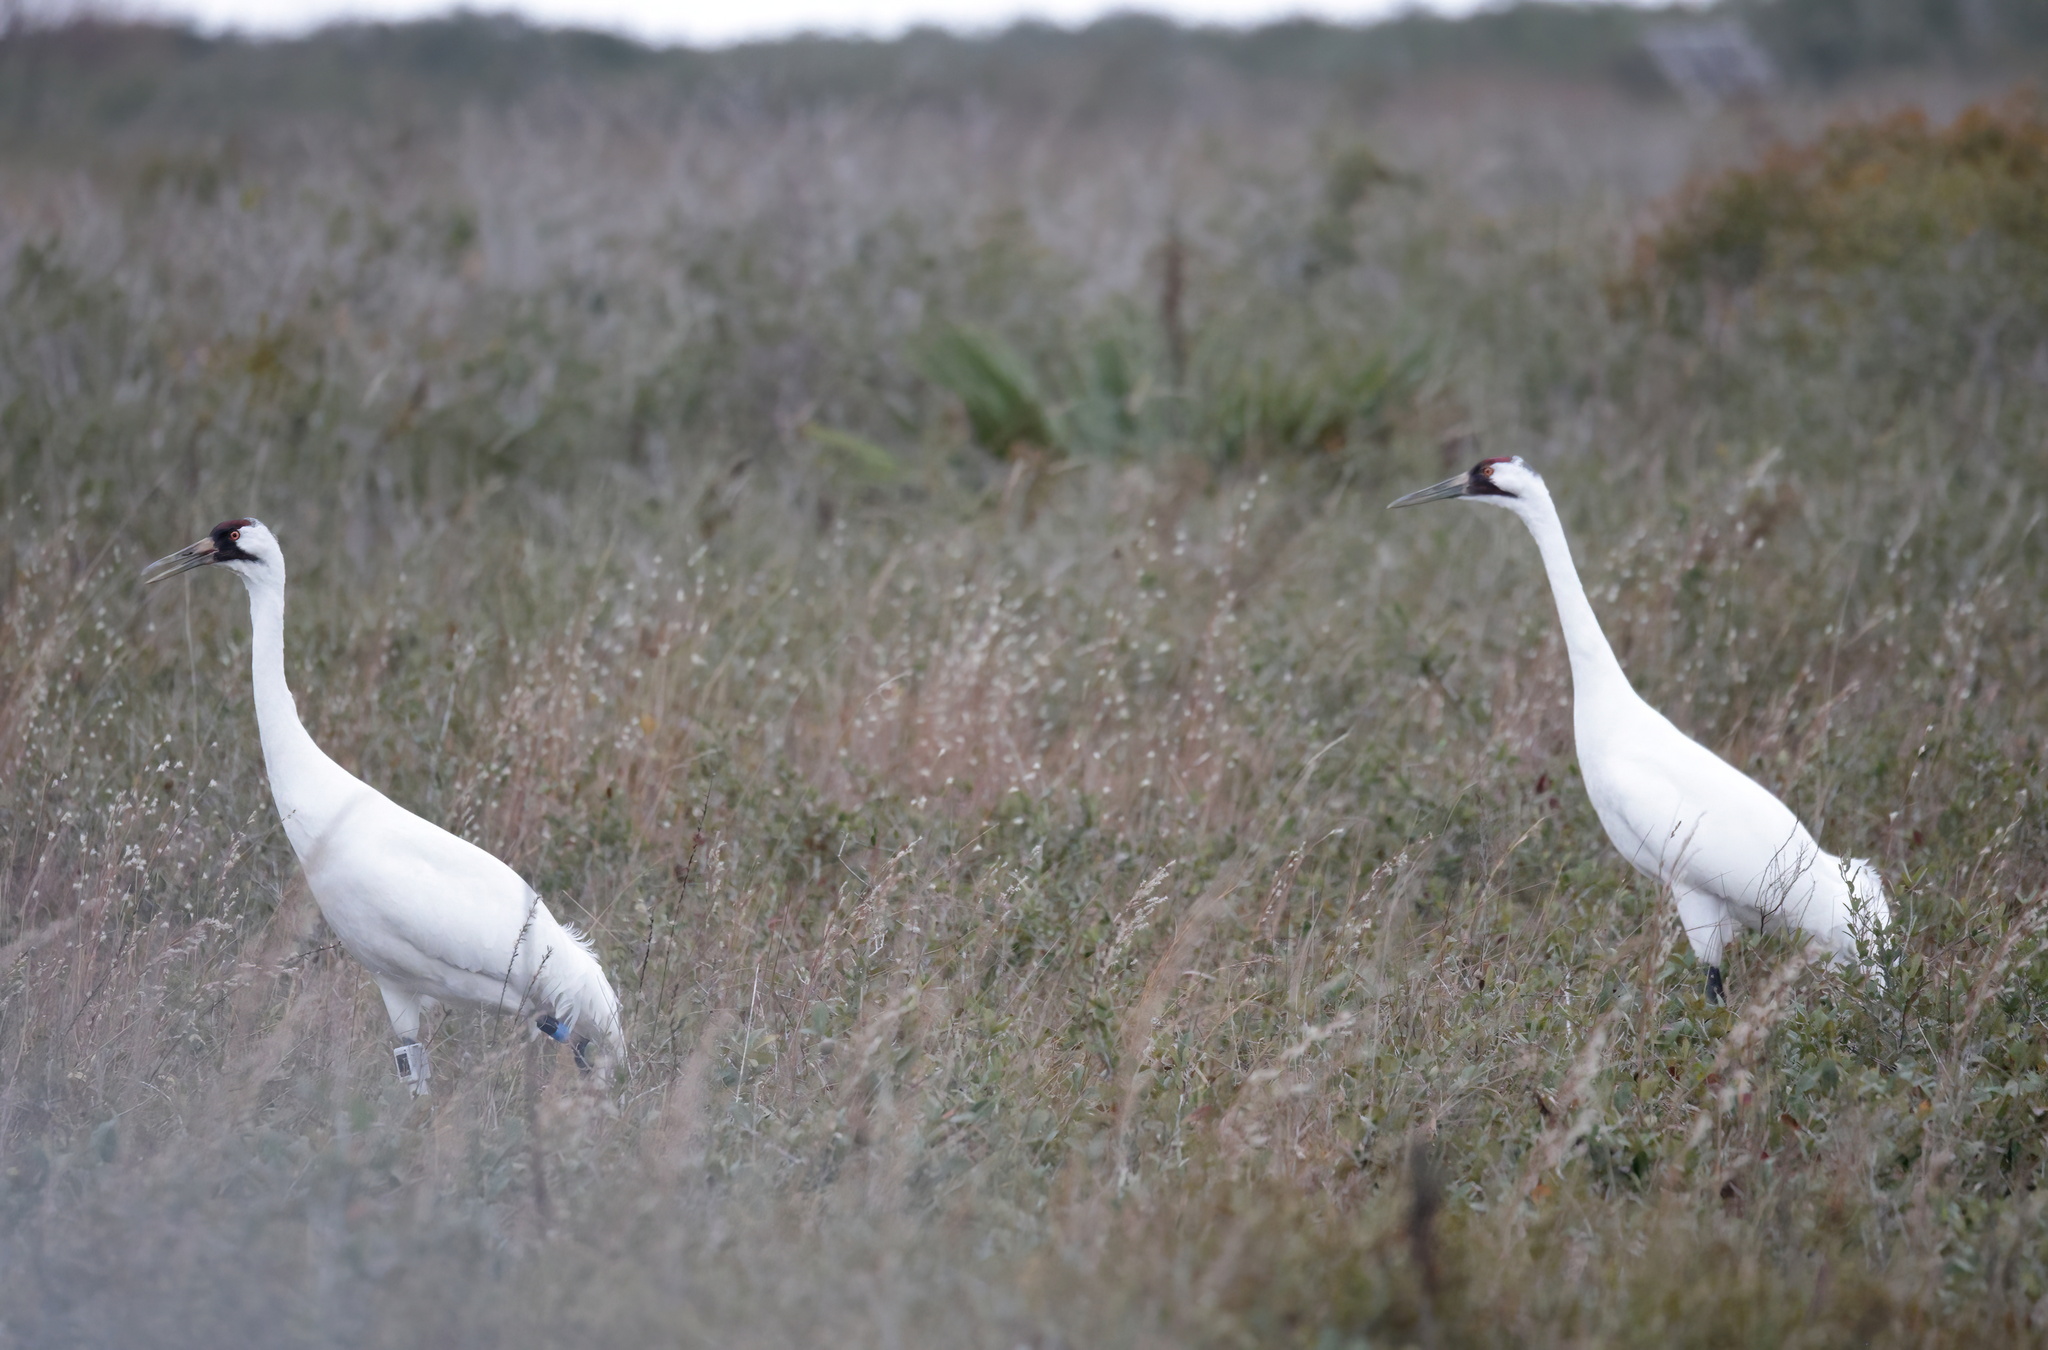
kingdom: Animalia
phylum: Chordata
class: Aves
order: Gruiformes
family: Gruidae
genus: Grus
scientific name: Grus americana
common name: Whooping crane
